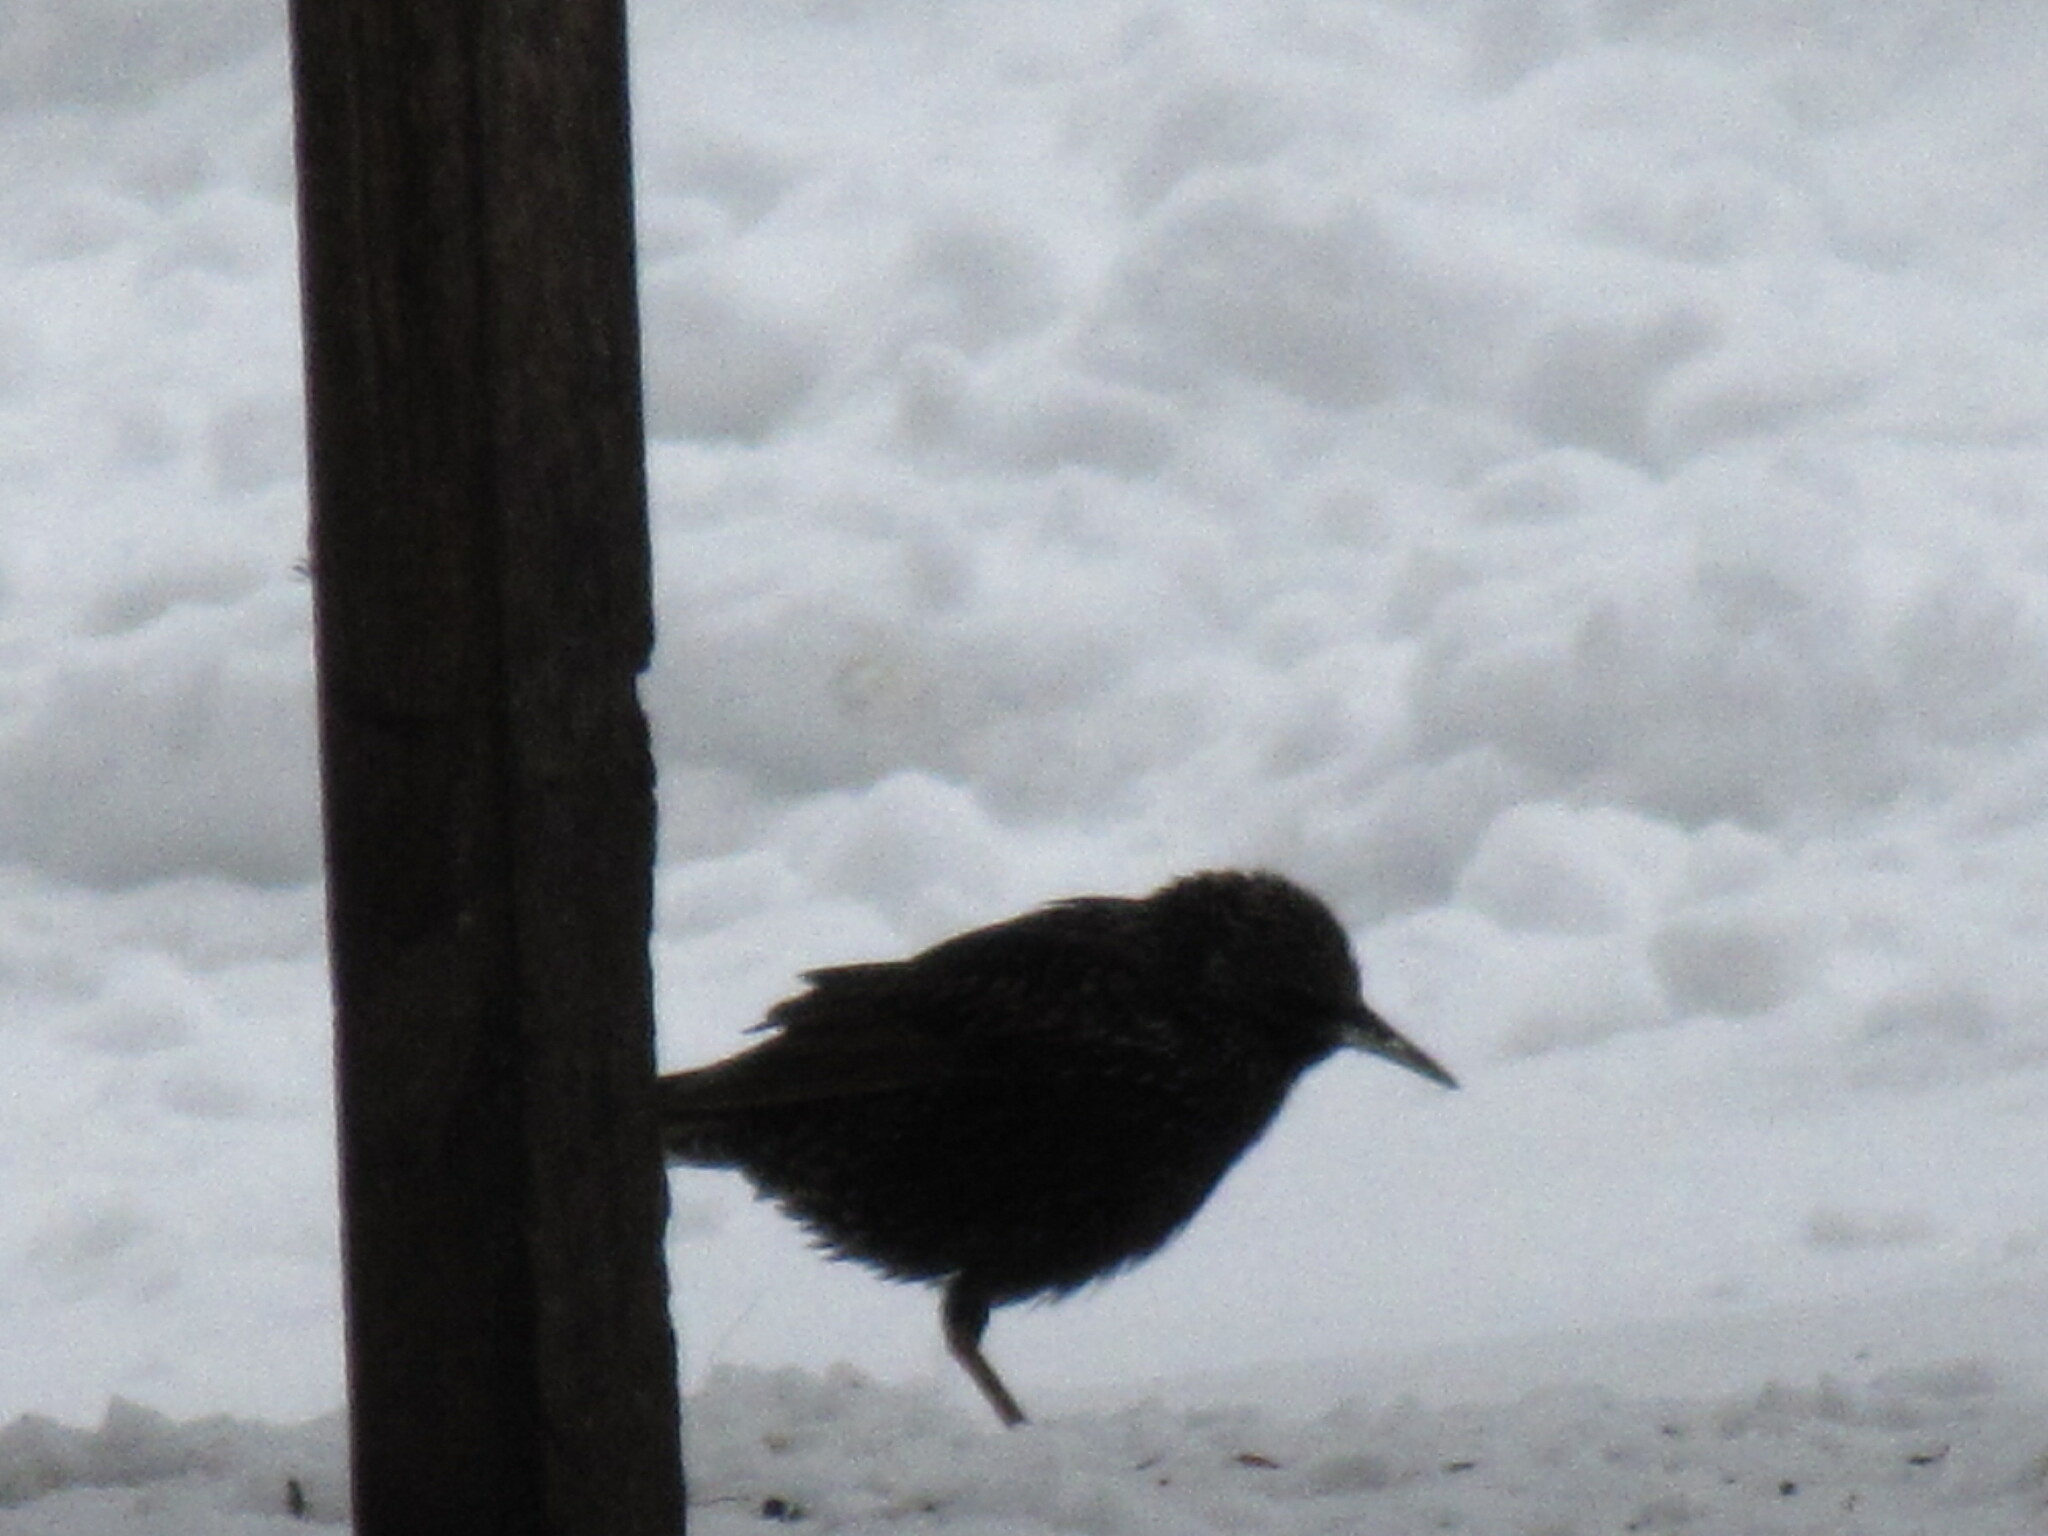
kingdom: Animalia
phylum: Chordata
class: Aves
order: Passeriformes
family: Sturnidae
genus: Sturnus
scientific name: Sturnus vulgaris
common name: Common starling
